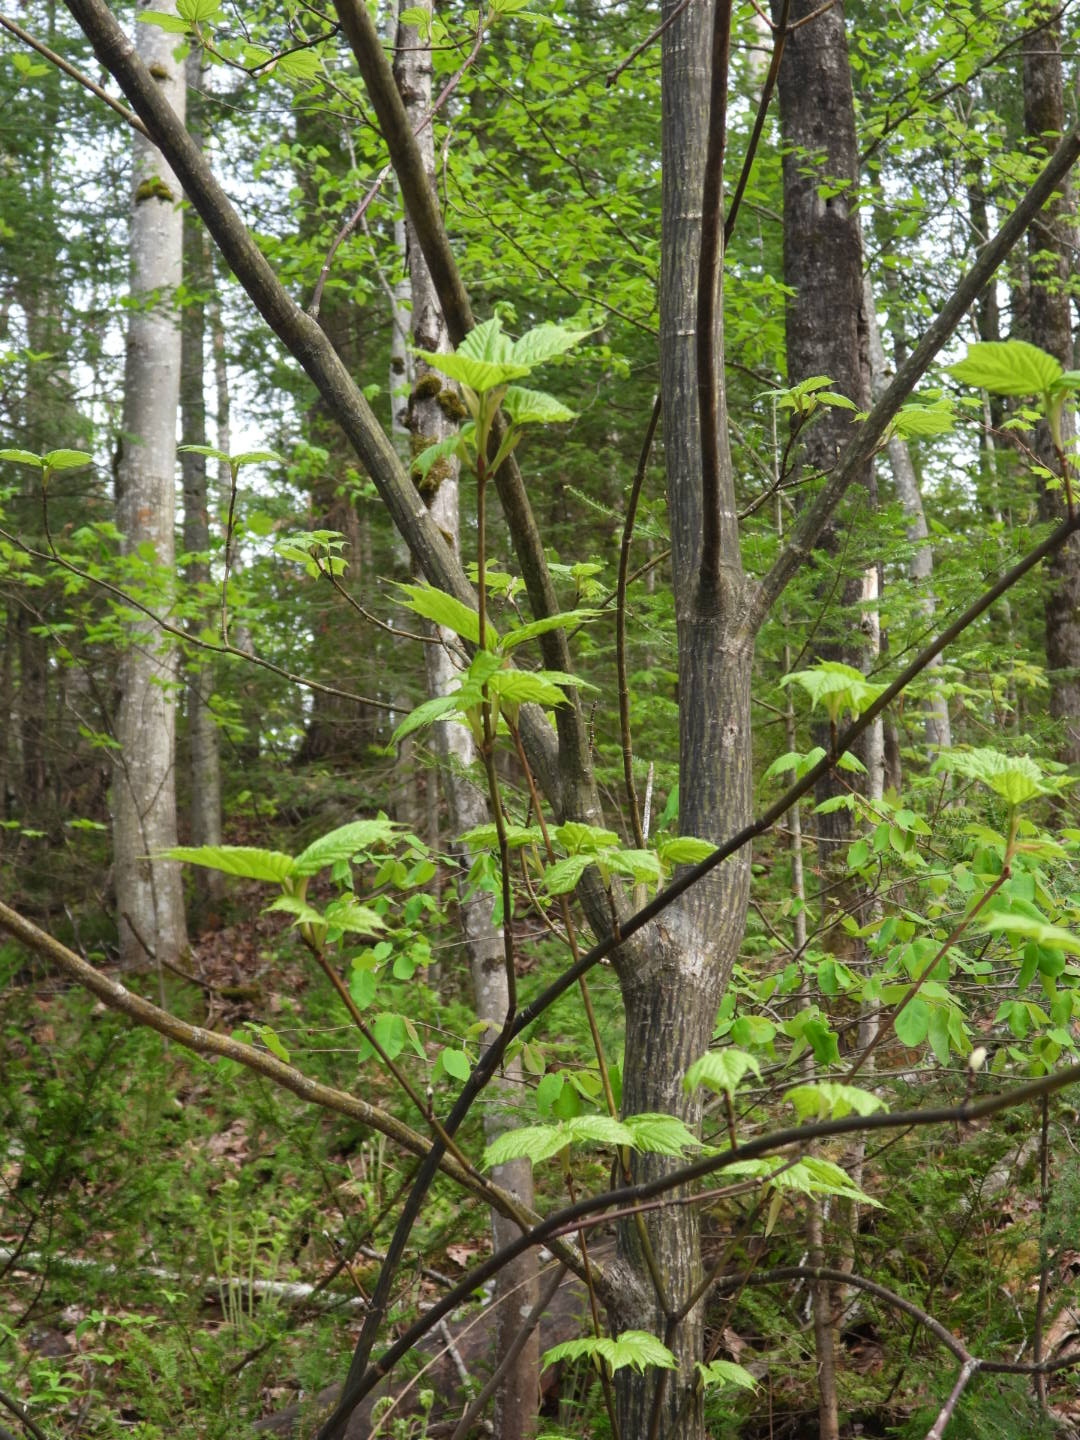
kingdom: Plantae
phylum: Tracheophyta
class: Magnoliopsida
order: Sapindales
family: Sapindaceae
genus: Acer
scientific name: Acer pensylvanicum
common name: Moosewood
